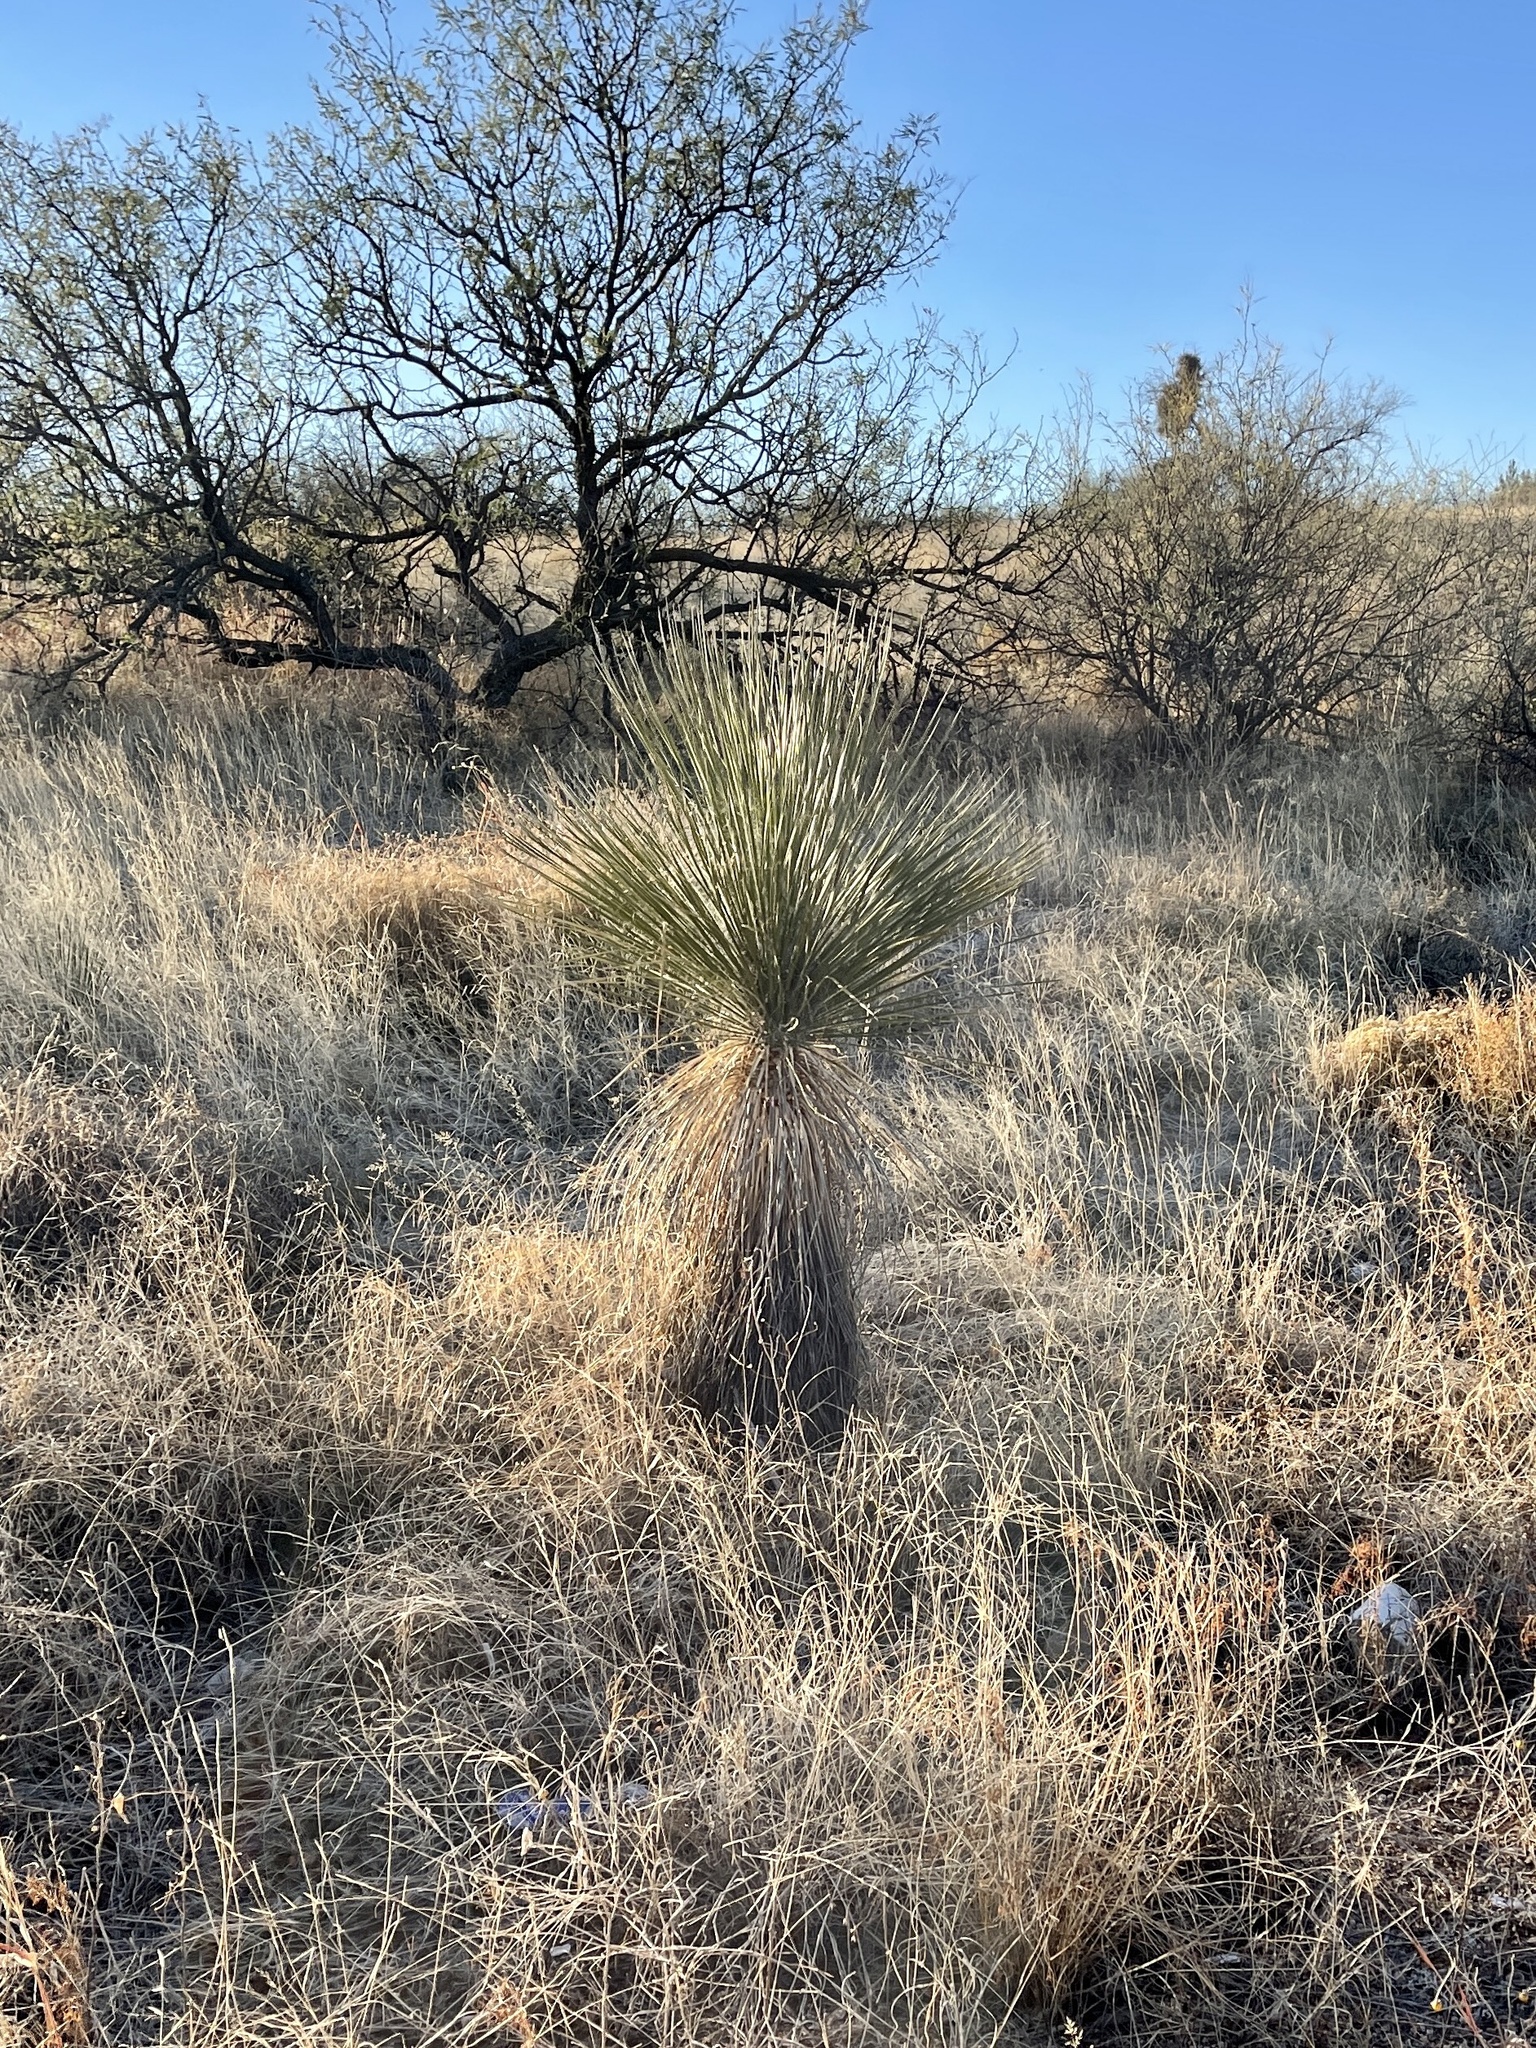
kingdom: Plantae
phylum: Tracheophyta
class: Liliopsida
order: Asparagales
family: Asparagaceae
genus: Yucca
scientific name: Yucca elata
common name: Palmella
